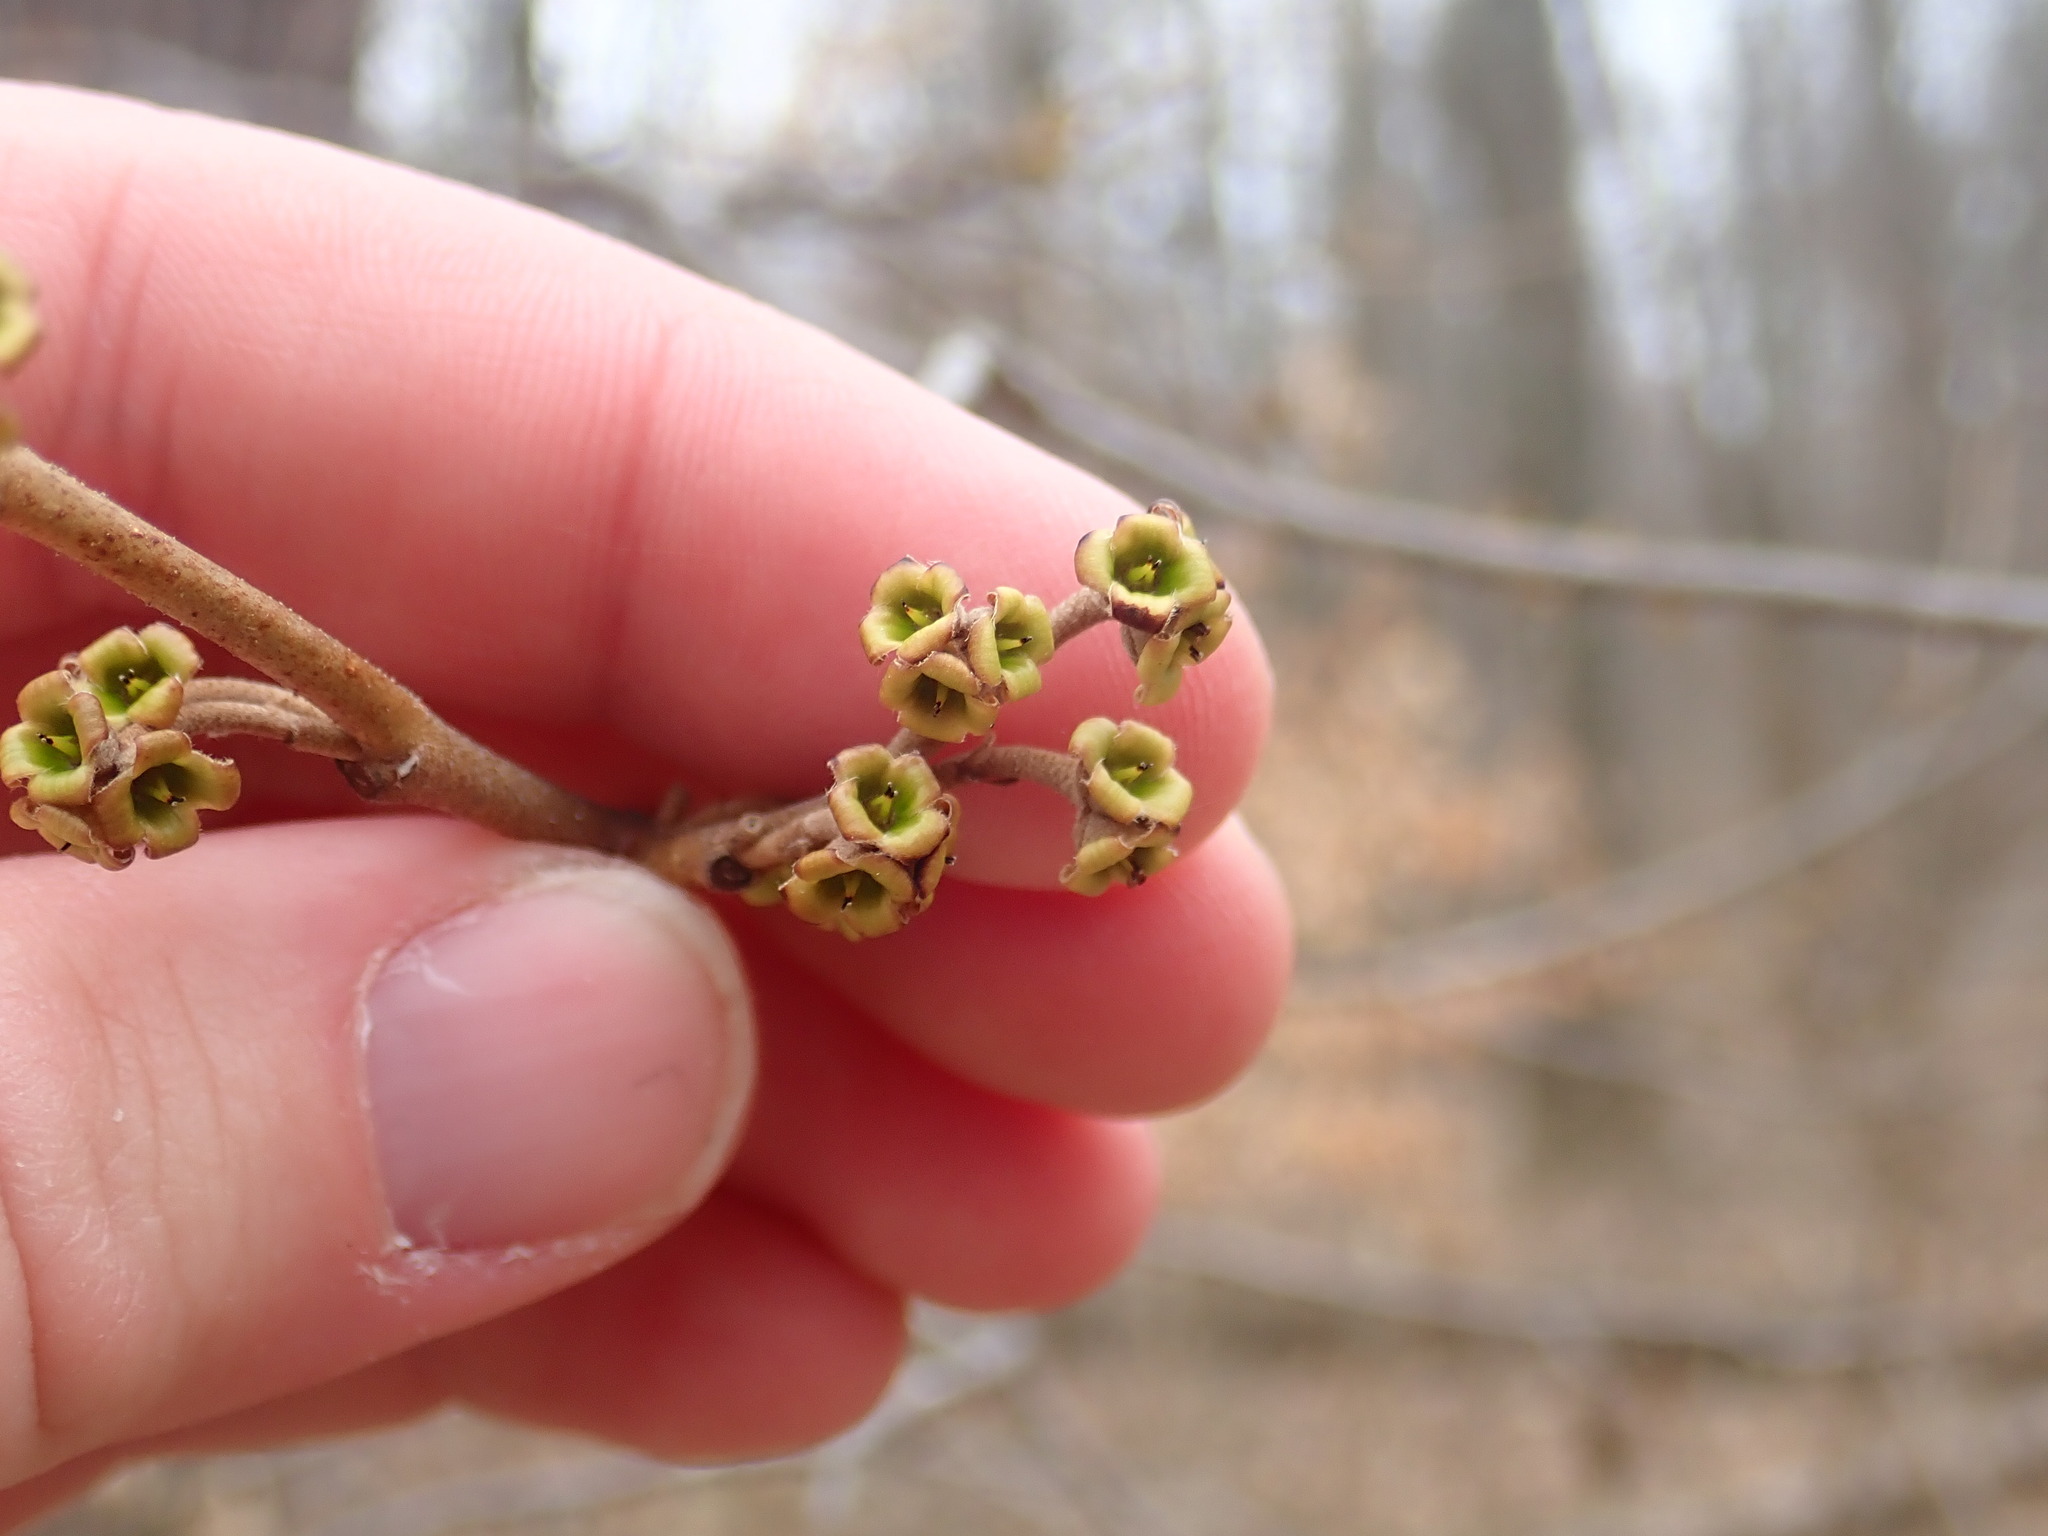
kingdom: Plantae
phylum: Tracheophyta
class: Magnoliopsida
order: Saxifragales
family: Hamamelidaceae
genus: Hamamelis
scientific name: Hamamelis virginiana
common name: Witch-hazel
